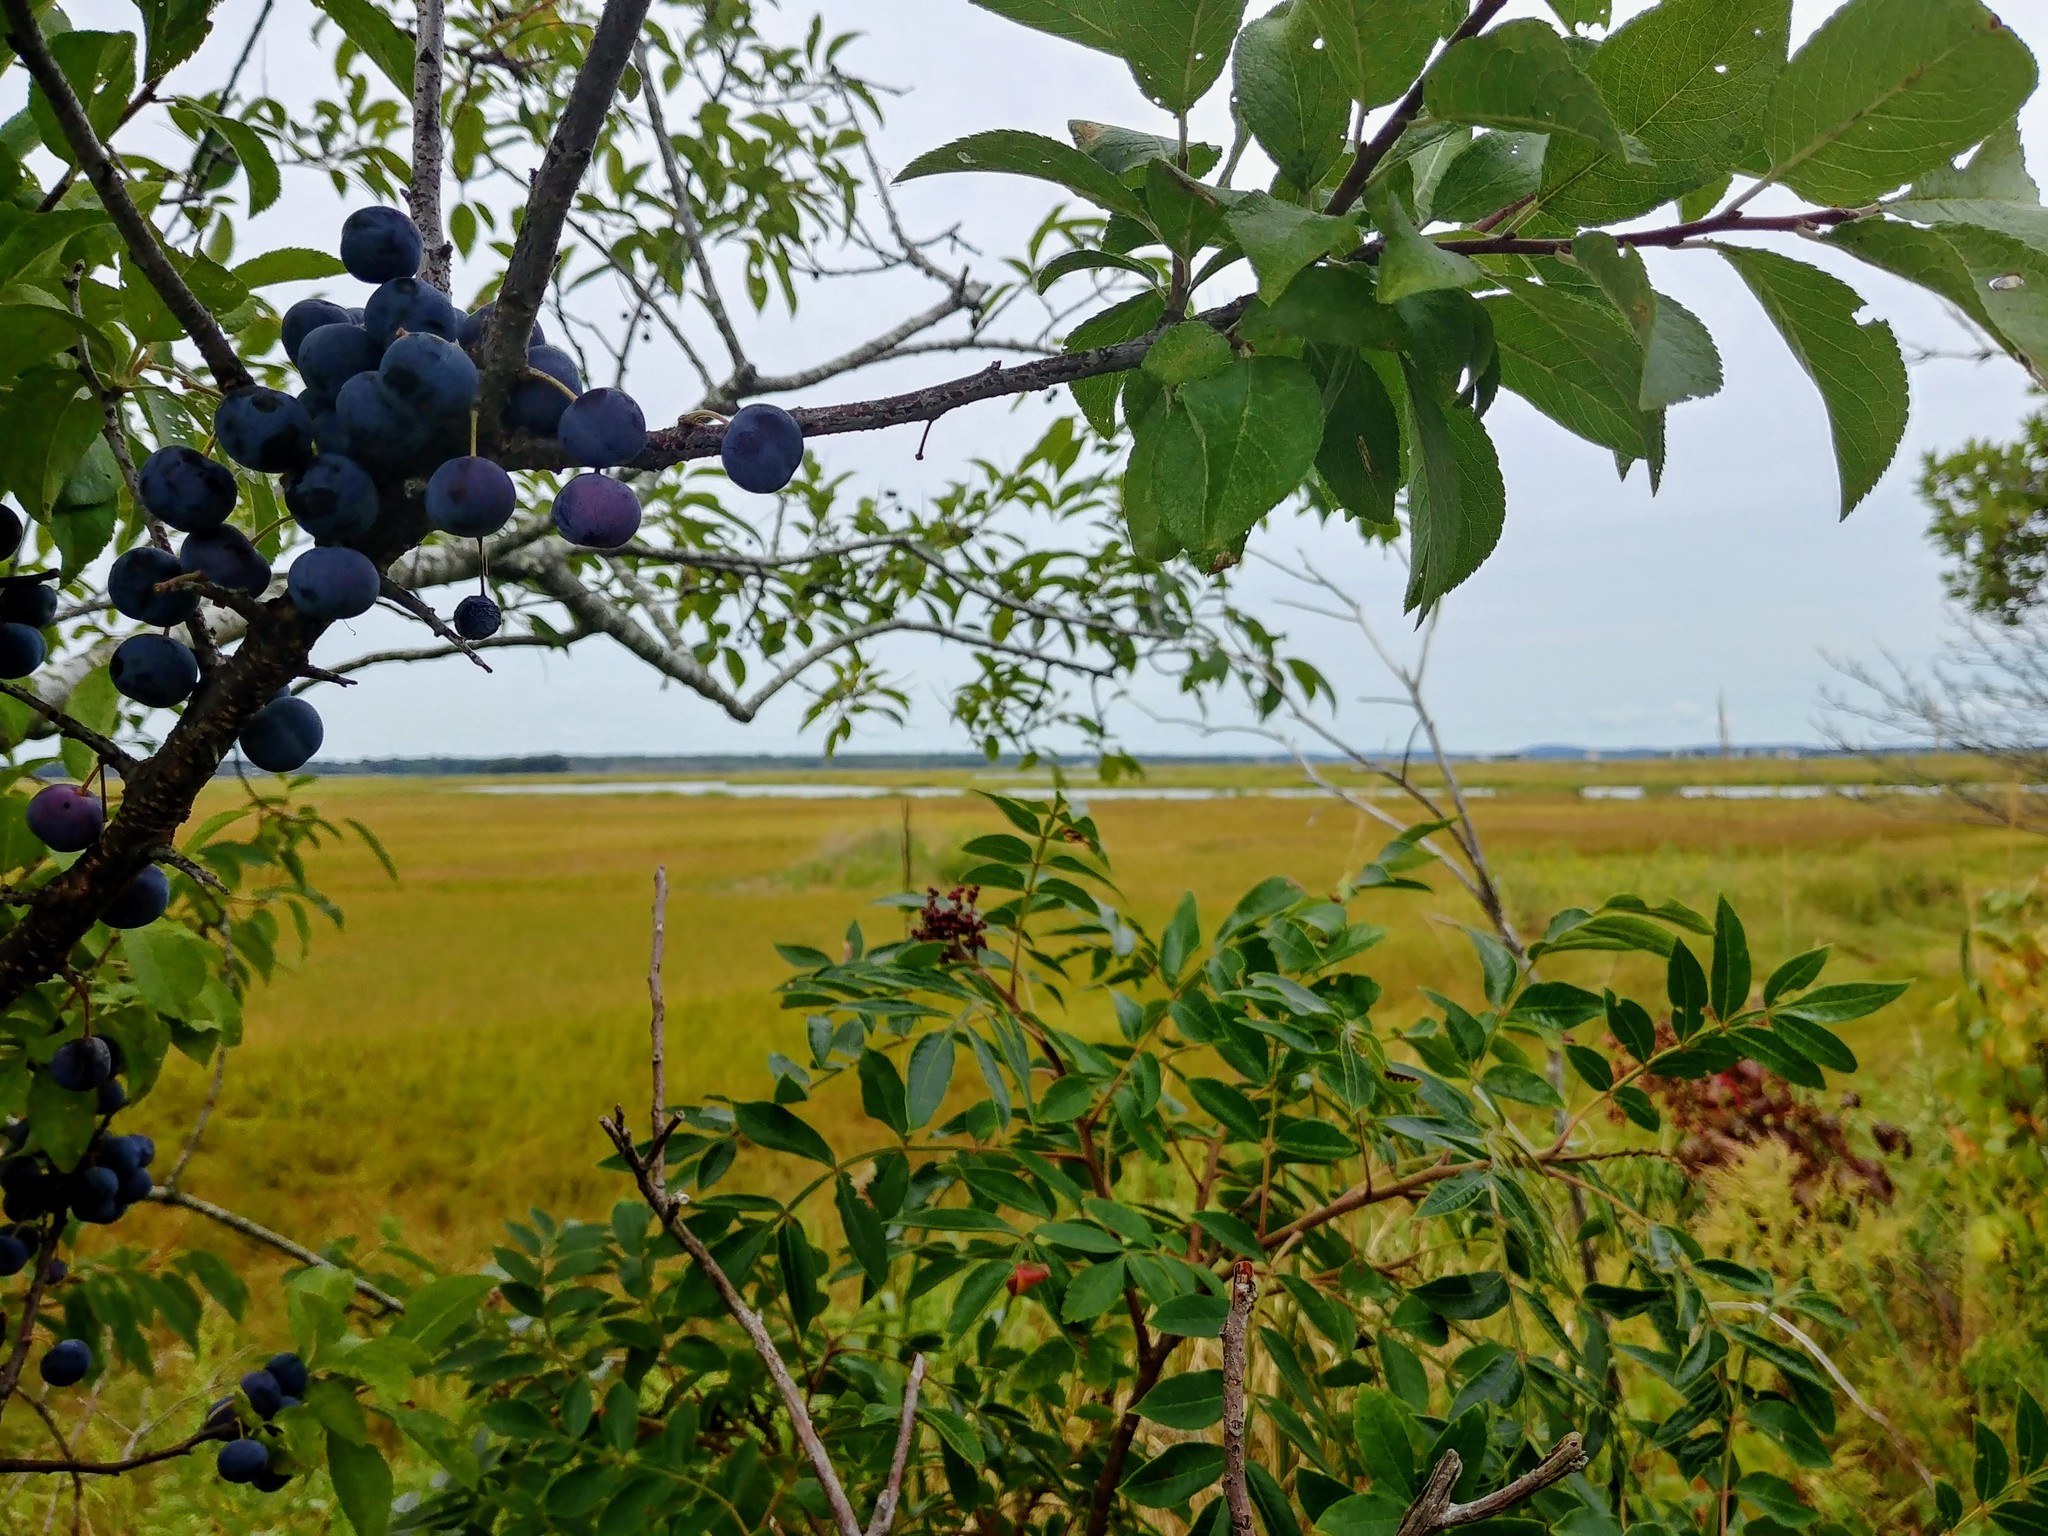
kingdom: Plantae
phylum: Tracheophyta
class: Magnoliopsida
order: Rosales
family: Rosaceae
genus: Prunus
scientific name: Prunus maritima
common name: Beach plum
